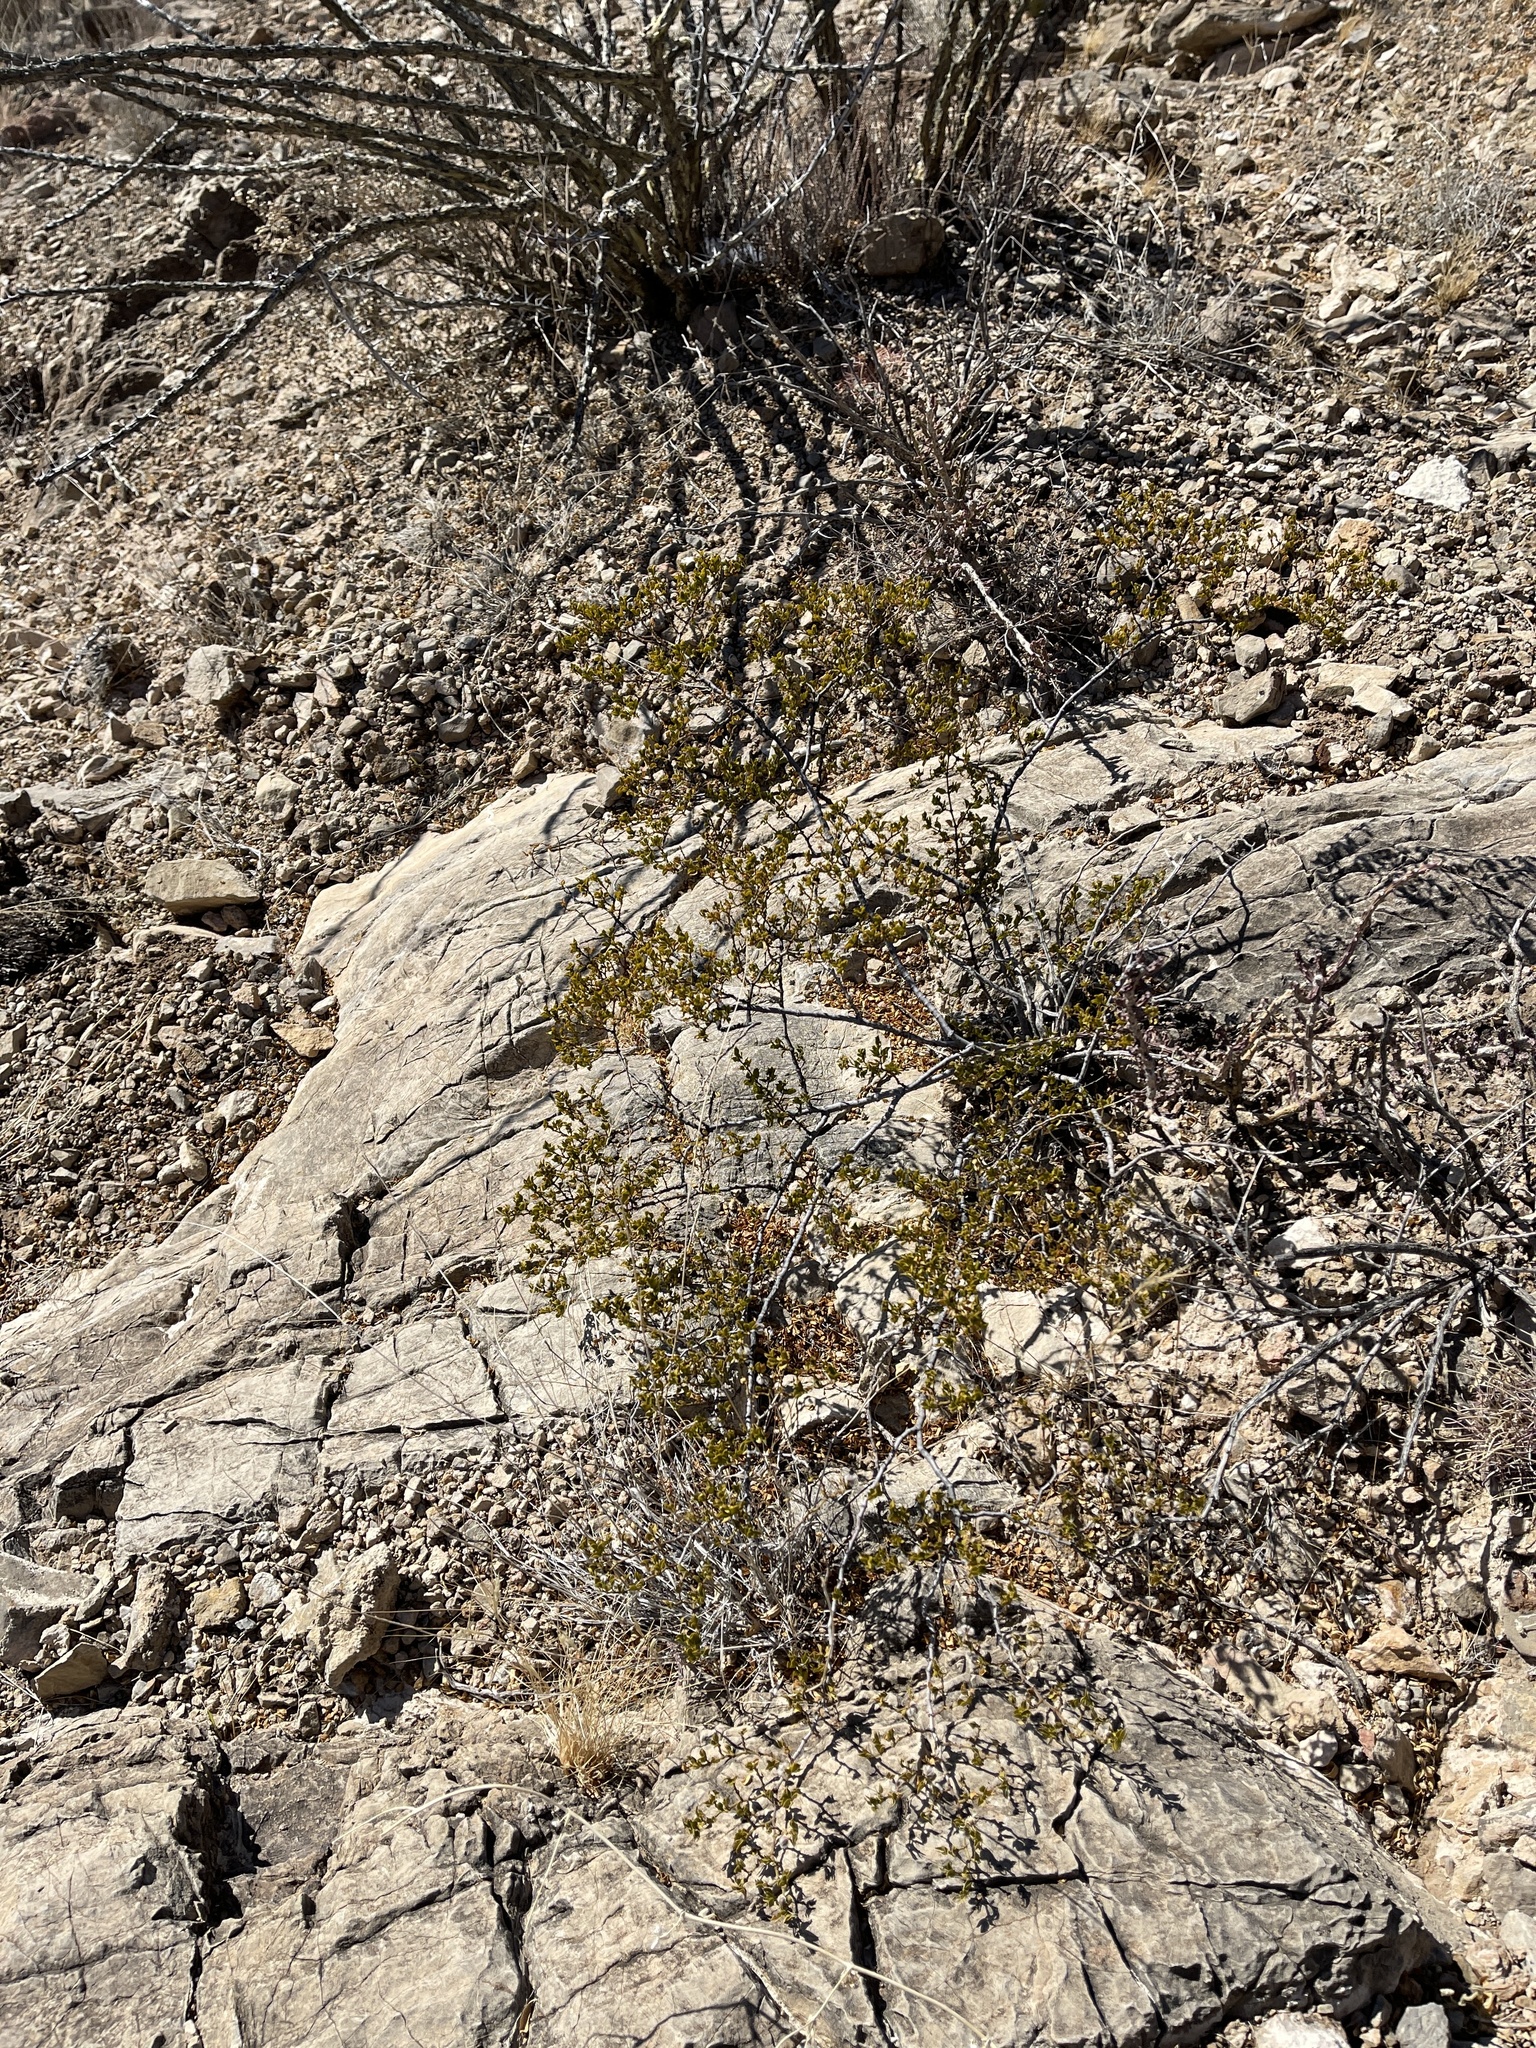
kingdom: Plantae
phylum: Tracheophyta
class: Magnoliopsida
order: Zygophyllales
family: Zygophyllaceae
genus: Larrea
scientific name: Larrea tridentata
